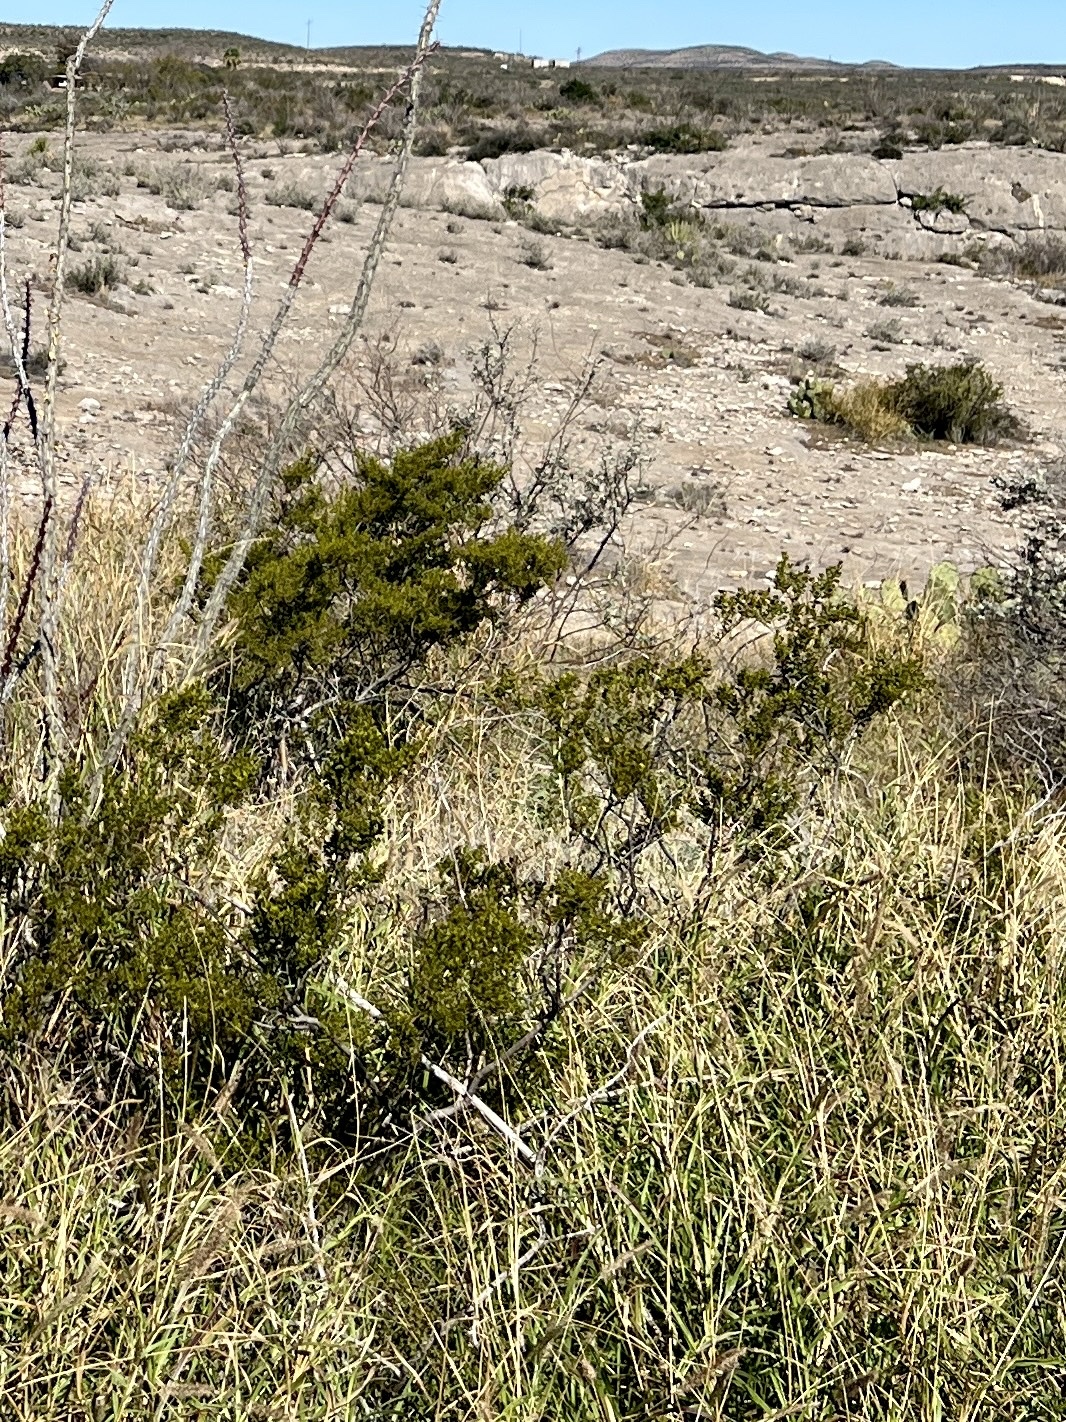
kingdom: Plantae
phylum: Tracheophyta
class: Magnoliopsida
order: Zygophyllales
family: Zygophyllaceae
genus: Larrea
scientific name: Larrea tridentata
